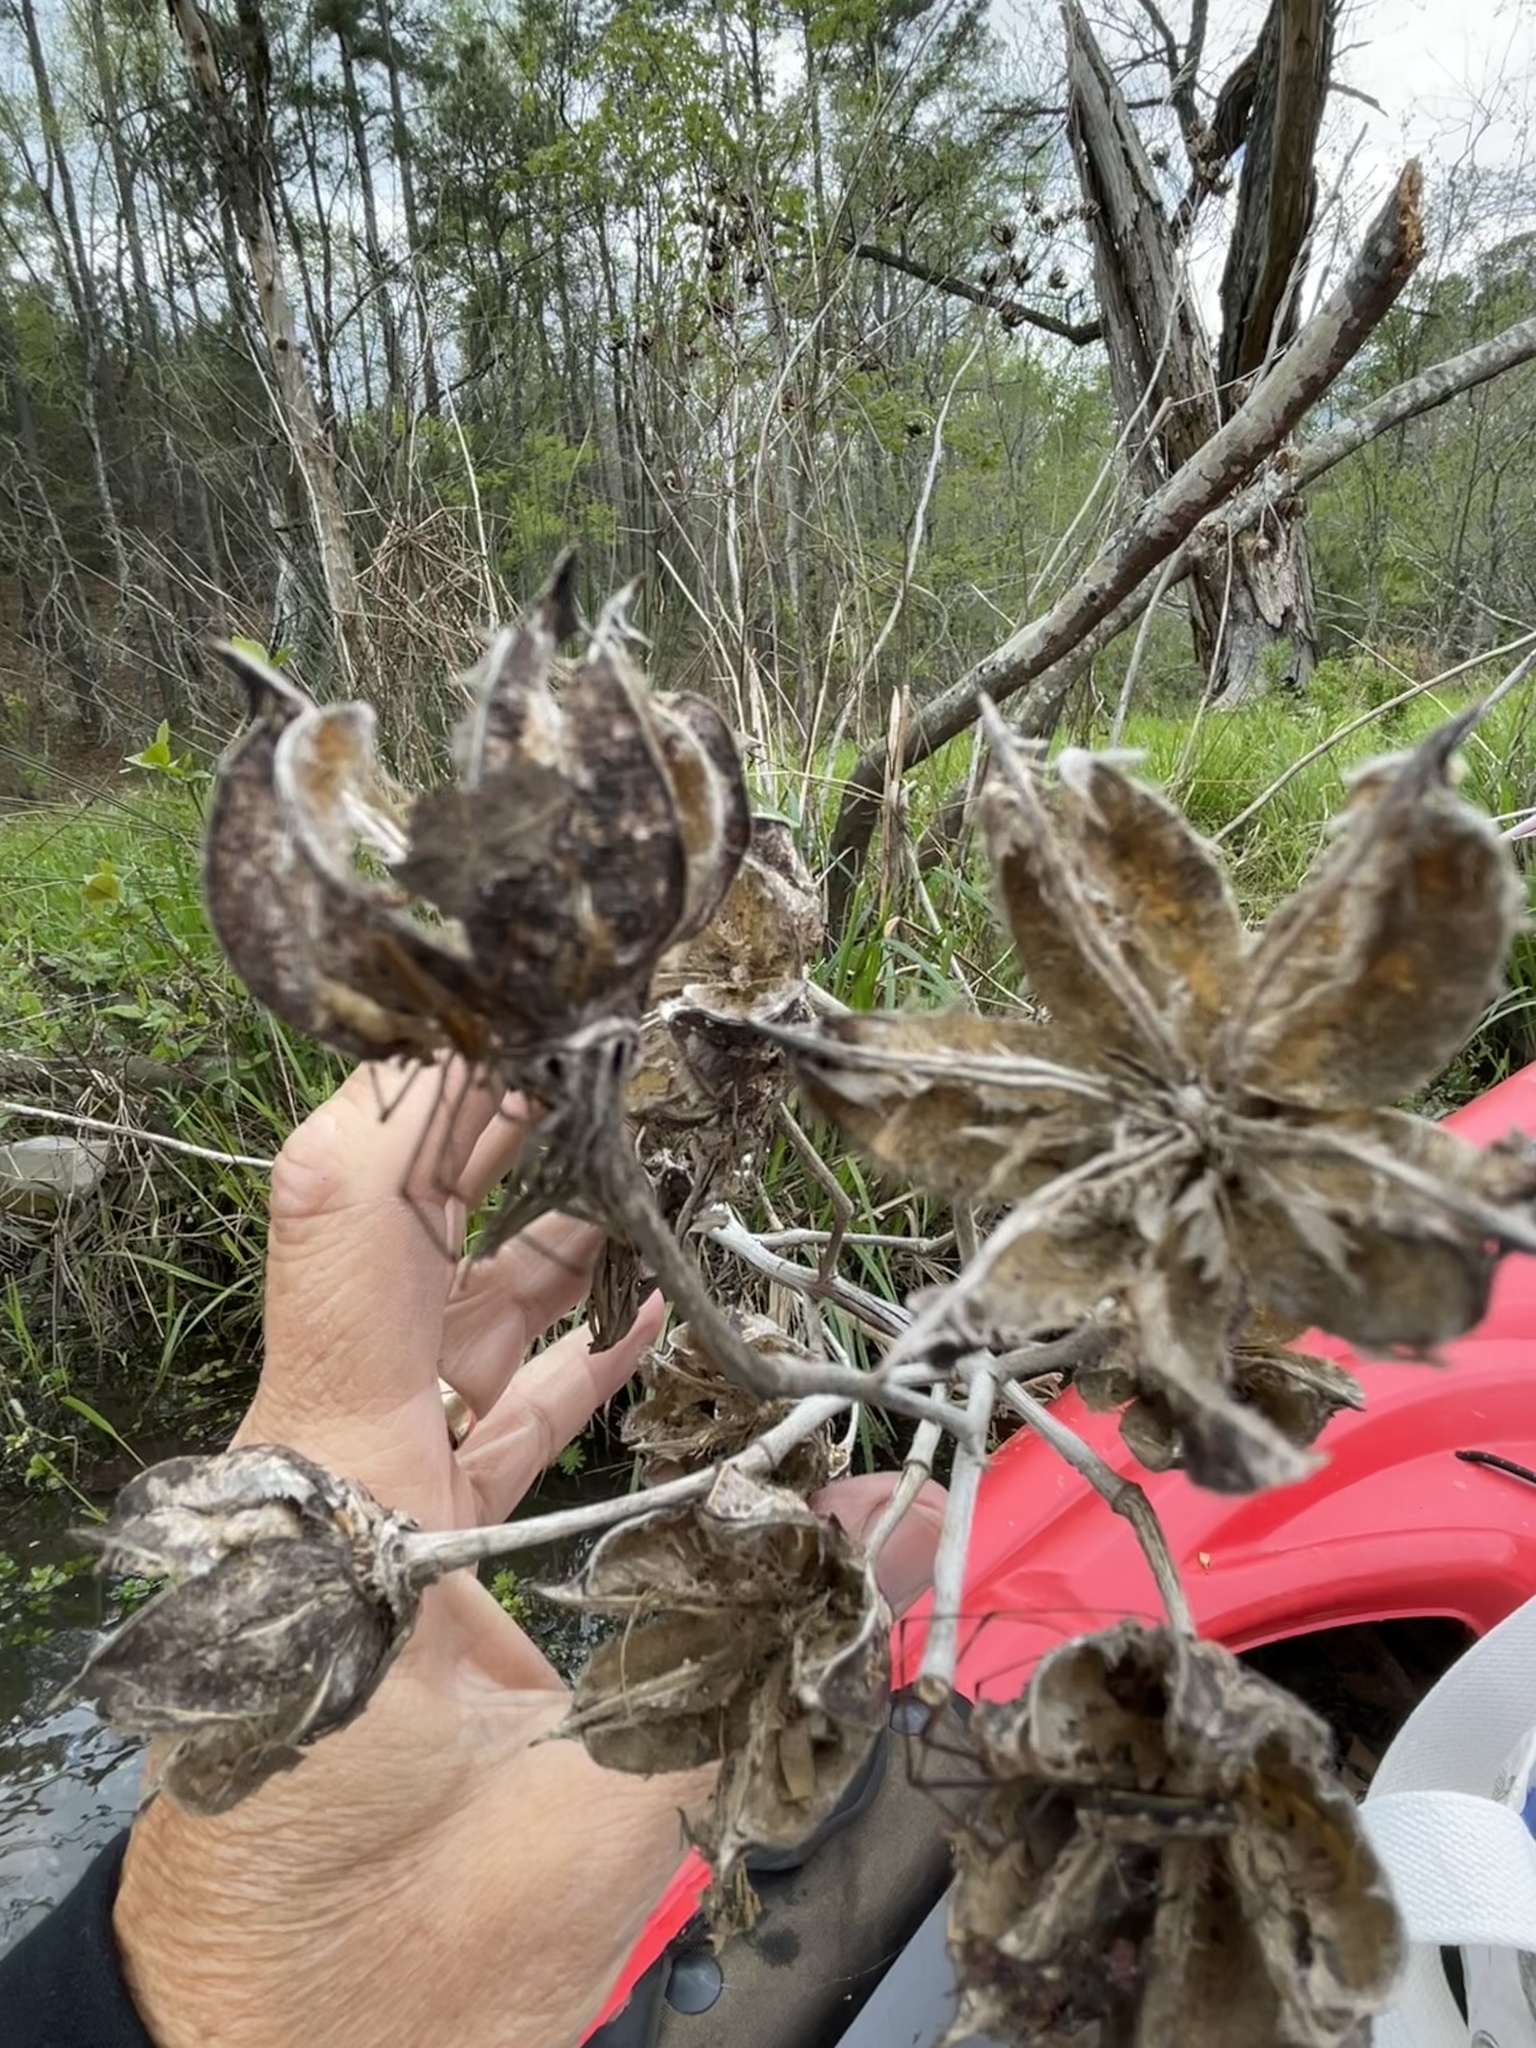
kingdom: Plantae
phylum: Tracheophyta
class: Magnoliopsida
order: Malvales
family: Malvaceae
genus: Hibiscus
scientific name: Hibiscus moscheutos
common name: Common rose-mallow
